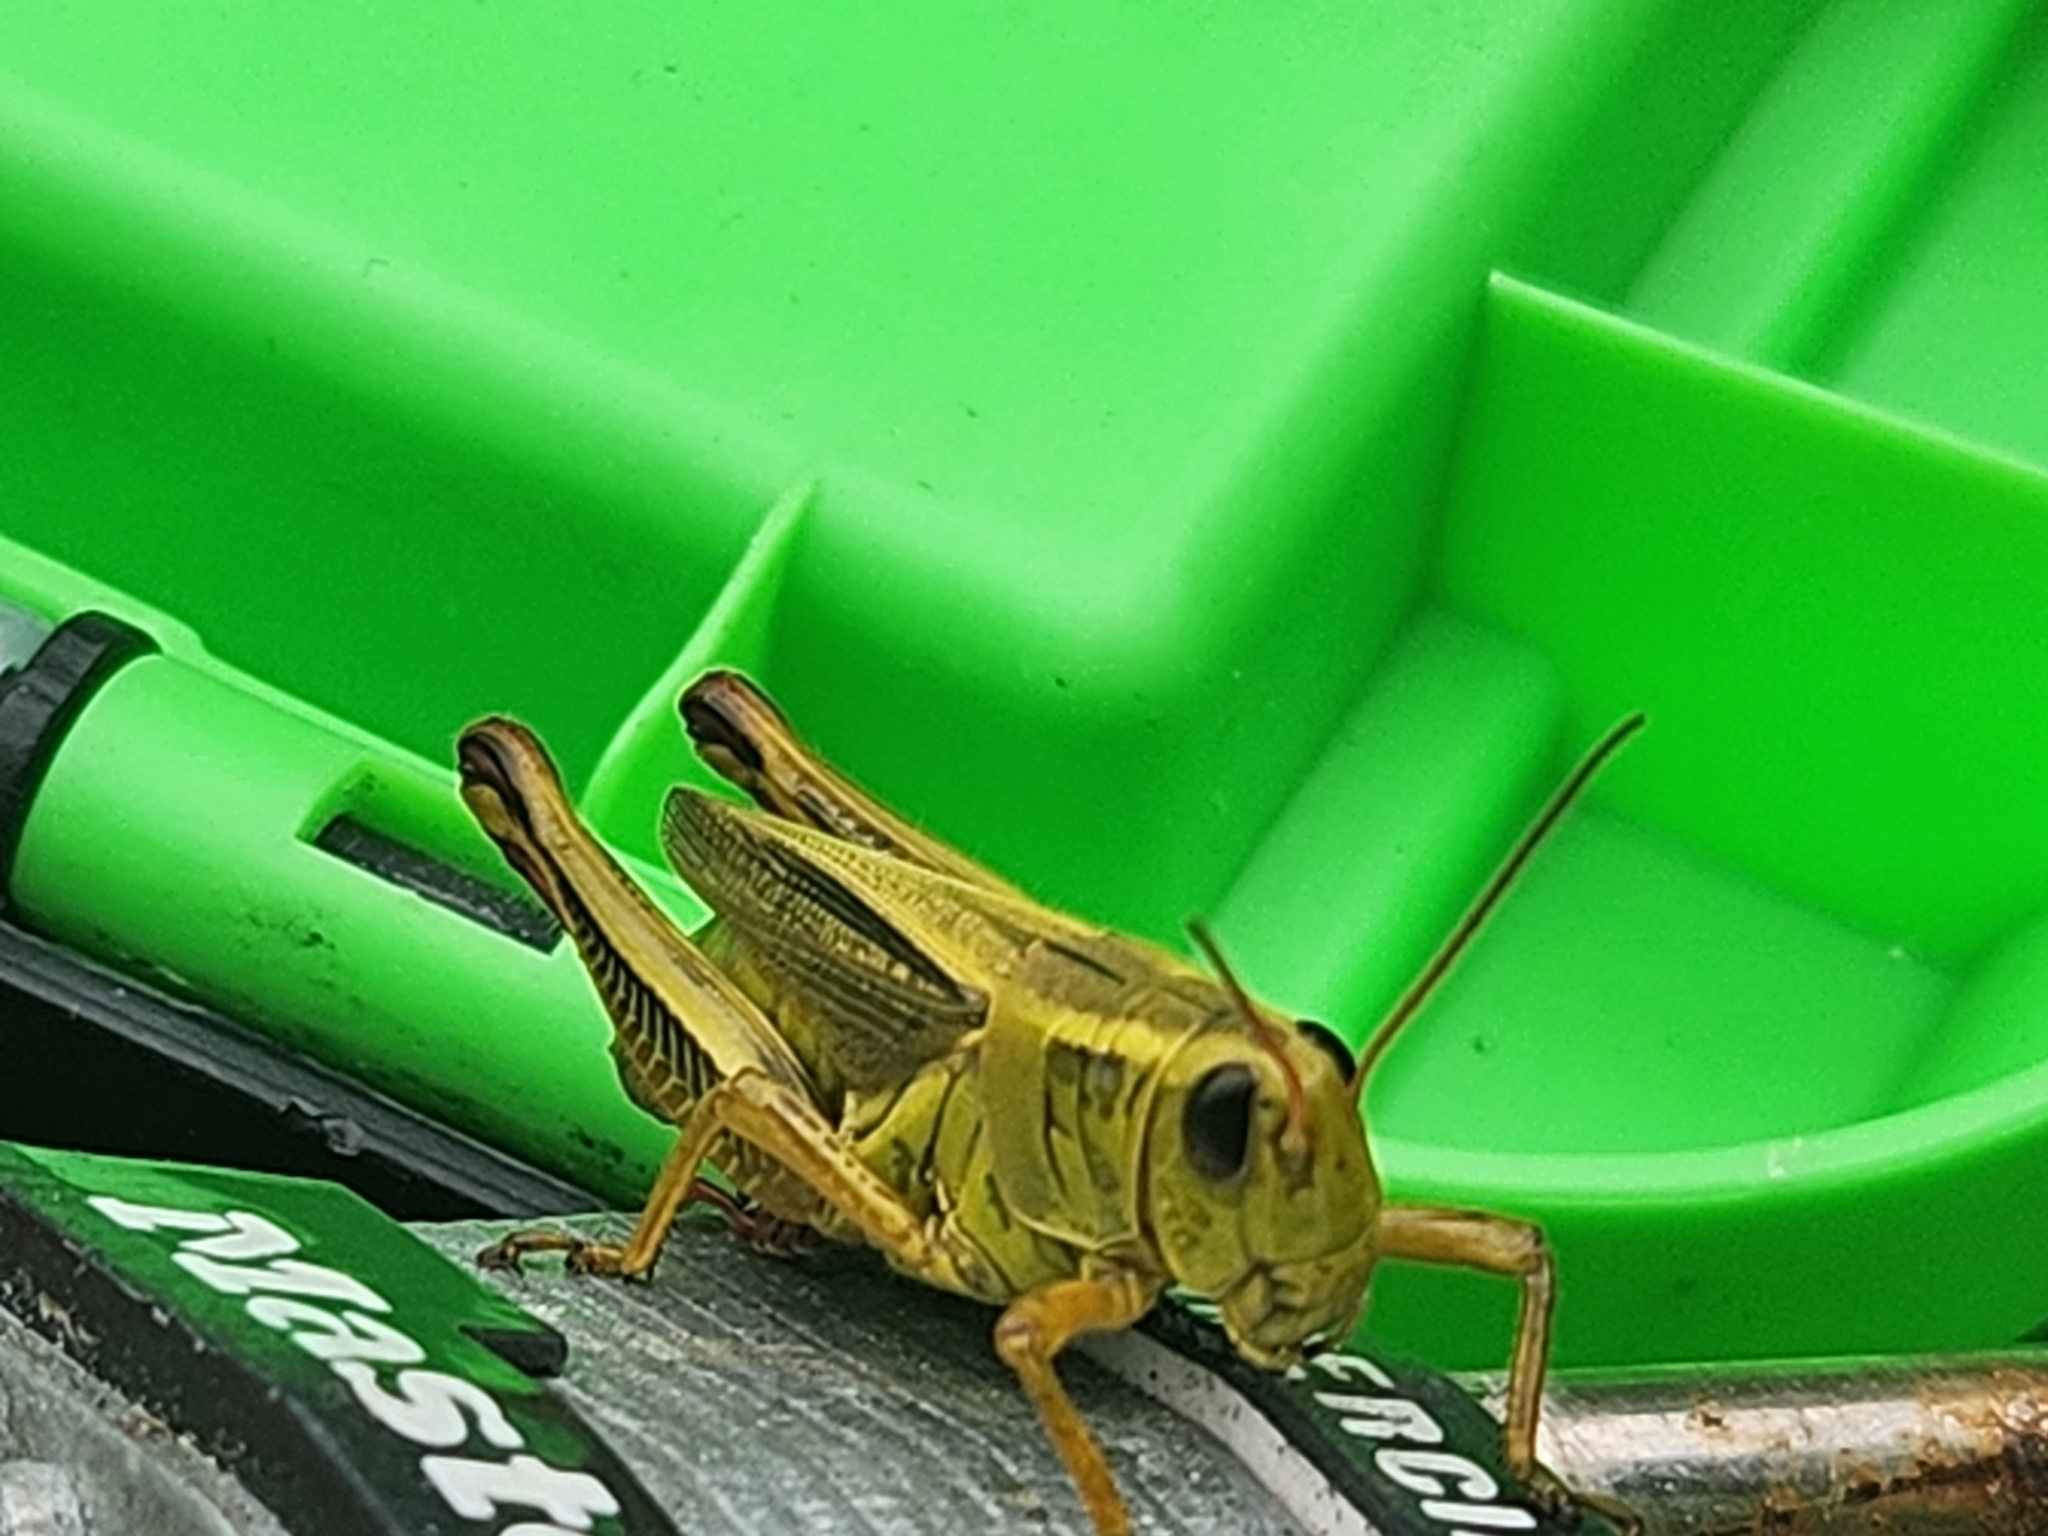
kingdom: Animalia
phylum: Arthropoda
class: Insecta
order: Orthoptera
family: Acrididae
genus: Melanoplus
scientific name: Melanoplus bivittatus
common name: Two-striped grasshopper
